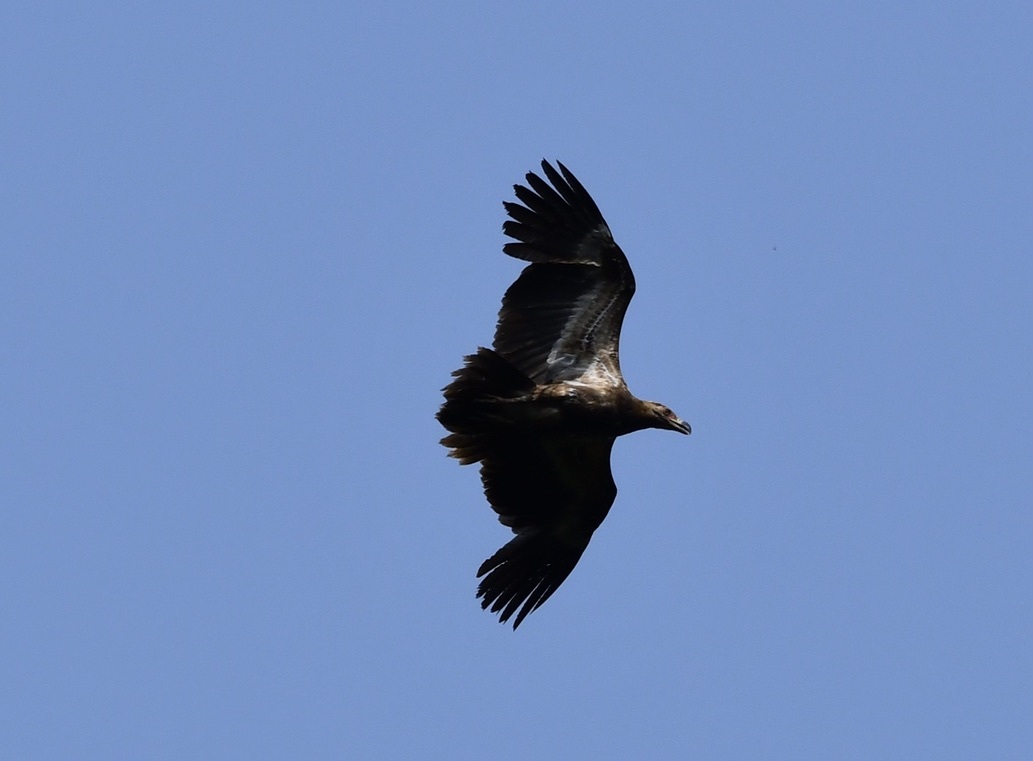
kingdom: Animalia
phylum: Chordata
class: Aves
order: Accipitriformes
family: Accipitridae
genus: Gypohierax
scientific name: Gypohierax angolensis
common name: Palm-nut vulture
